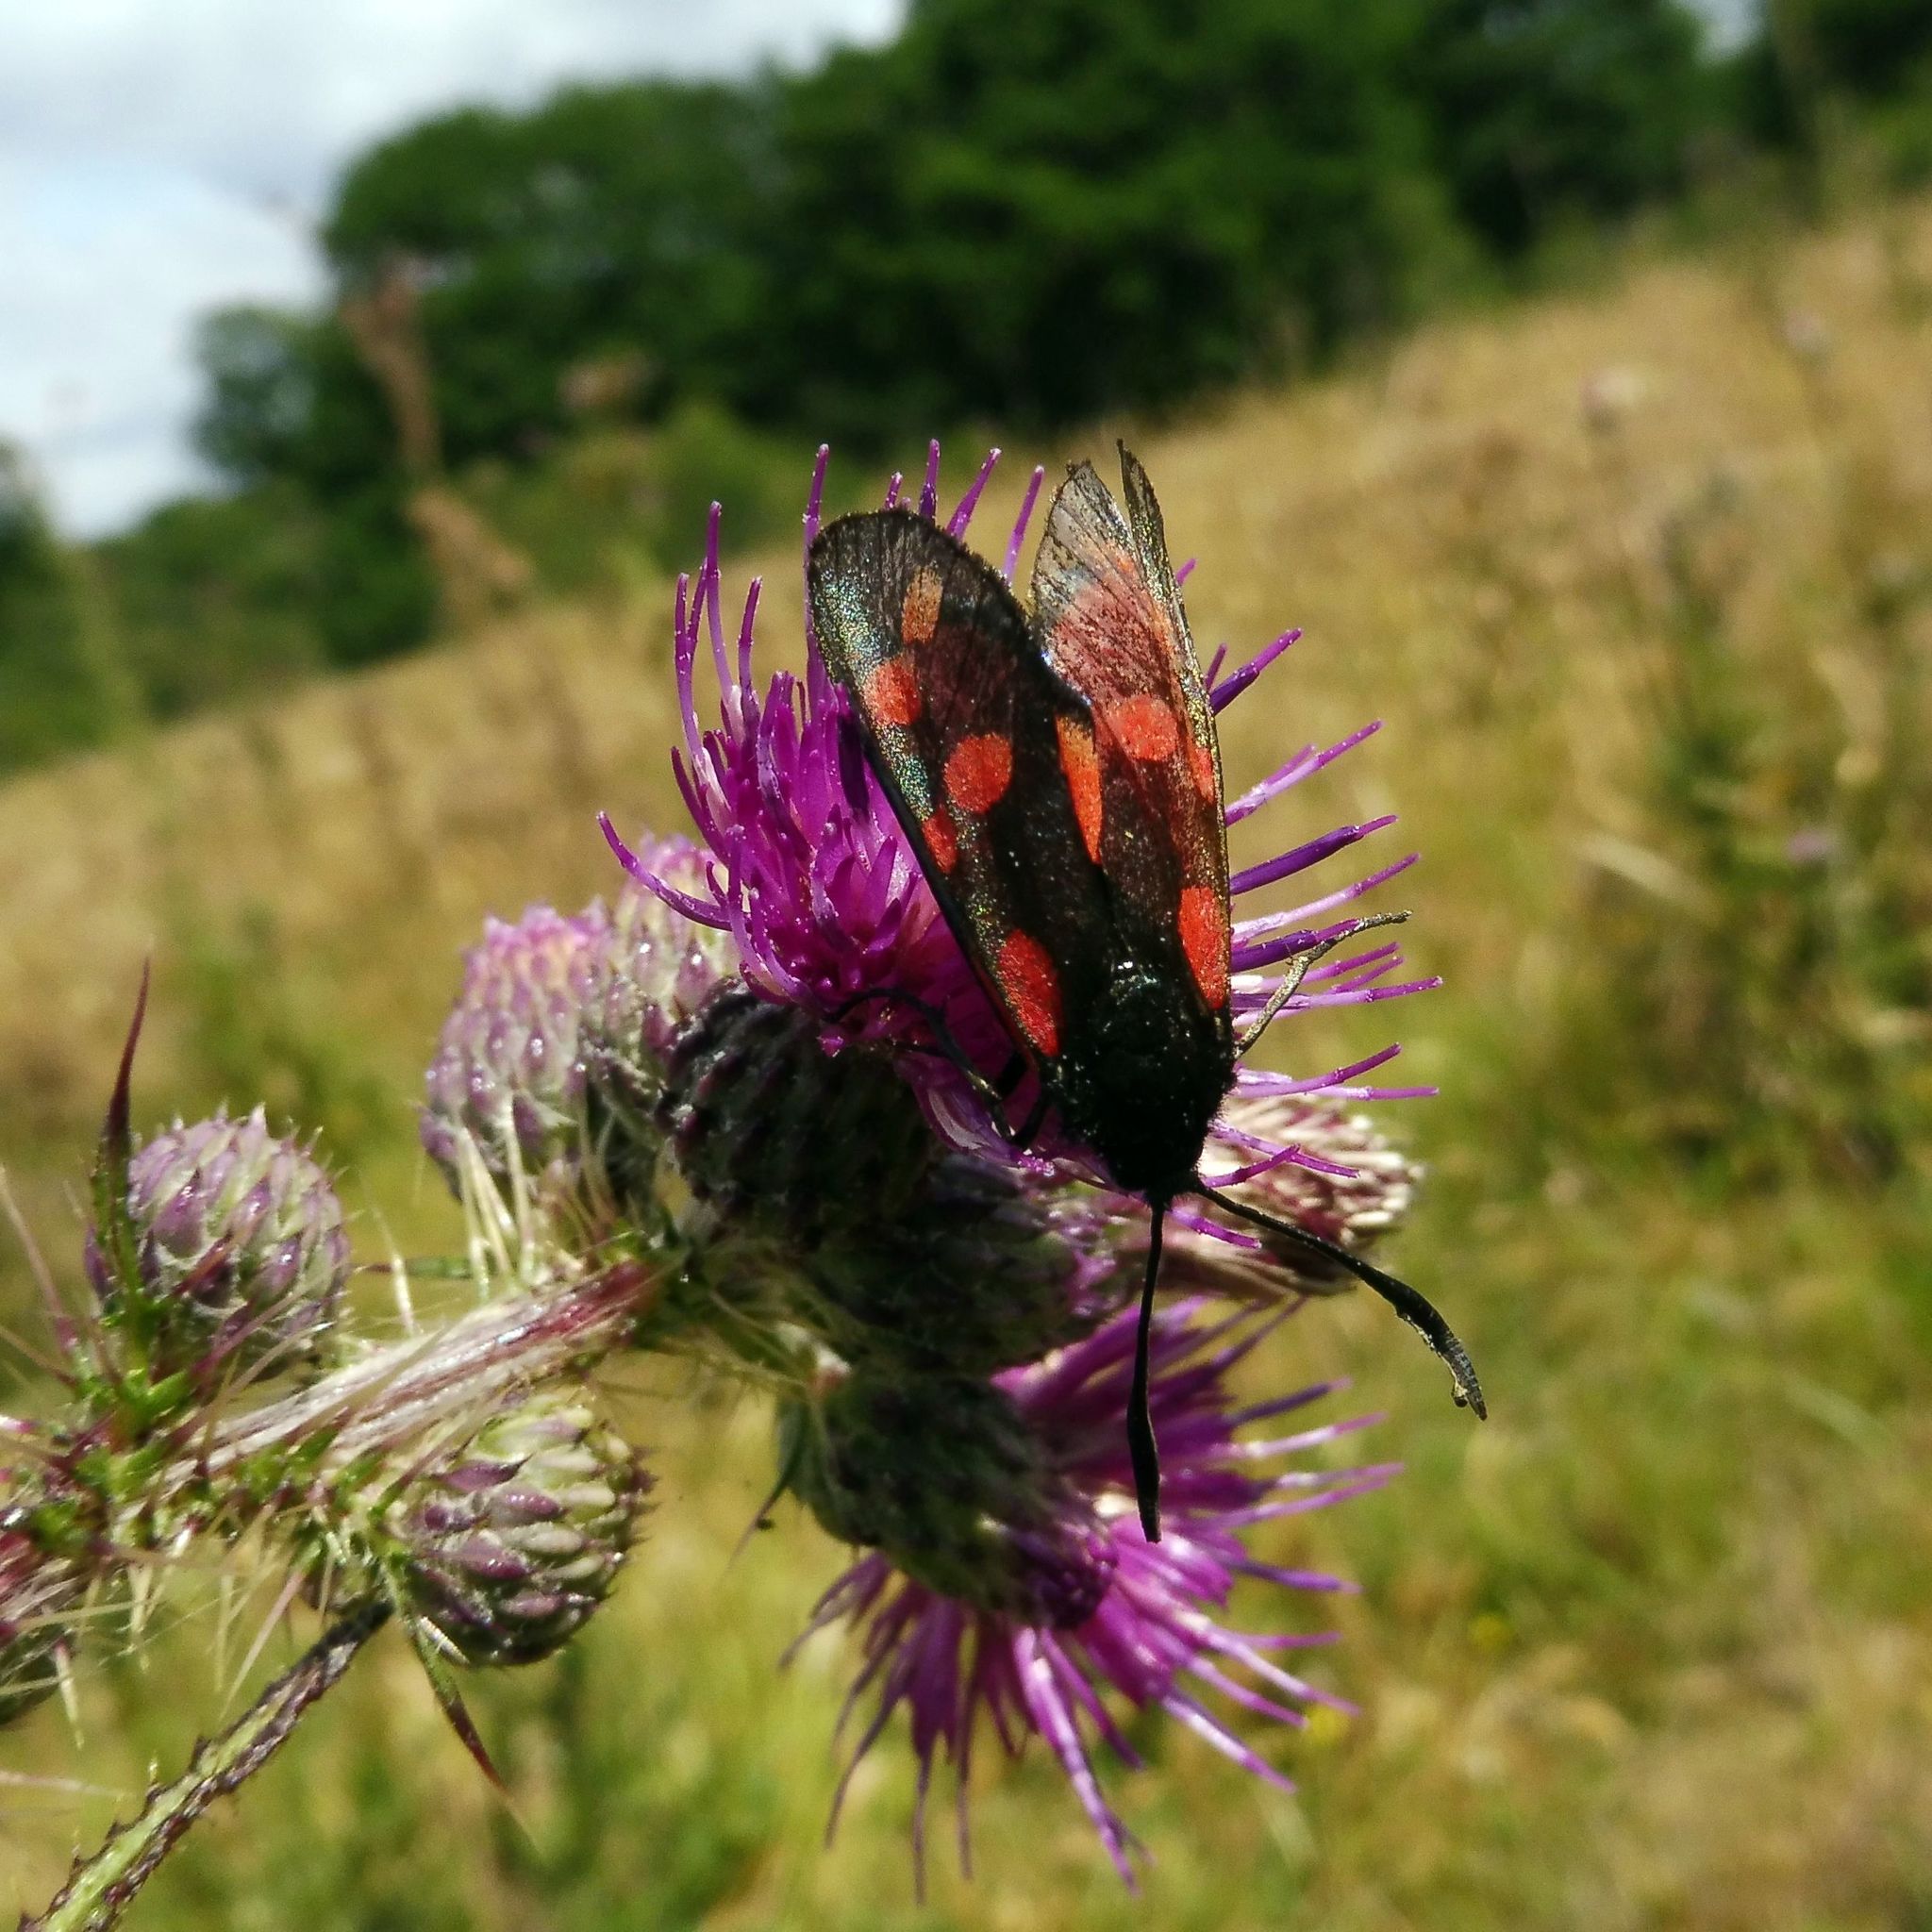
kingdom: Animalia
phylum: Arthropoda
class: Insecta
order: Lepidoptera
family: Zygaenidae
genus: Zygaena
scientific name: Zygaena filipendulae
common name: Six-spot burnet
